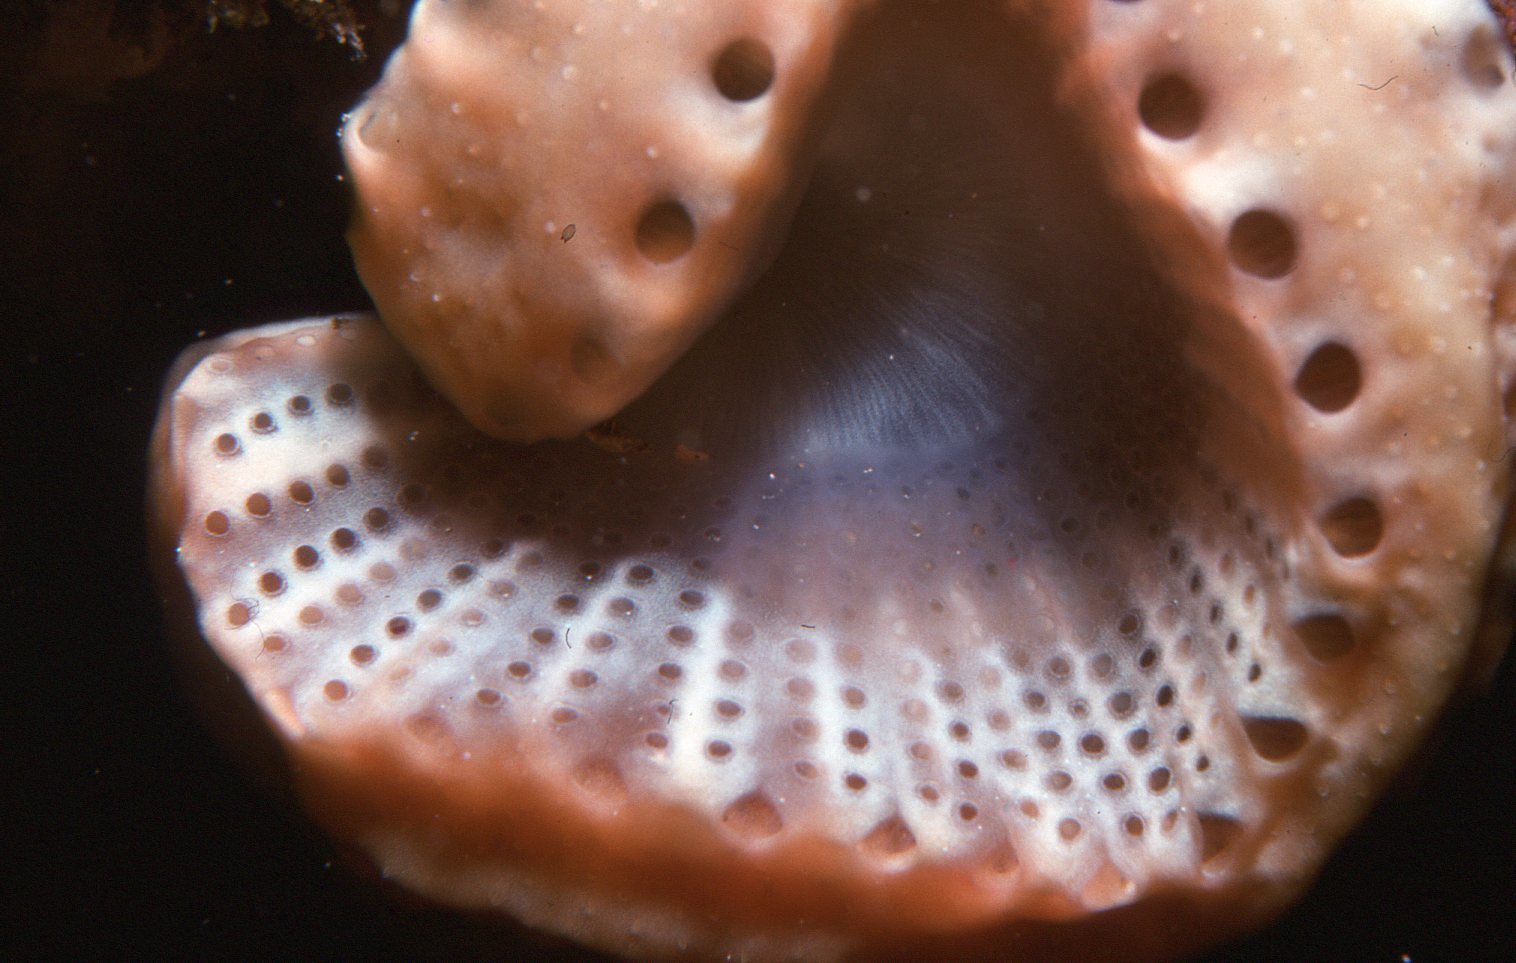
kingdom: Animalia
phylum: Chordata
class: Ascidiacea
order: Aplousobranchia
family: Holozoidae
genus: Sycozoa
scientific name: Sycozoa cerebriformis
